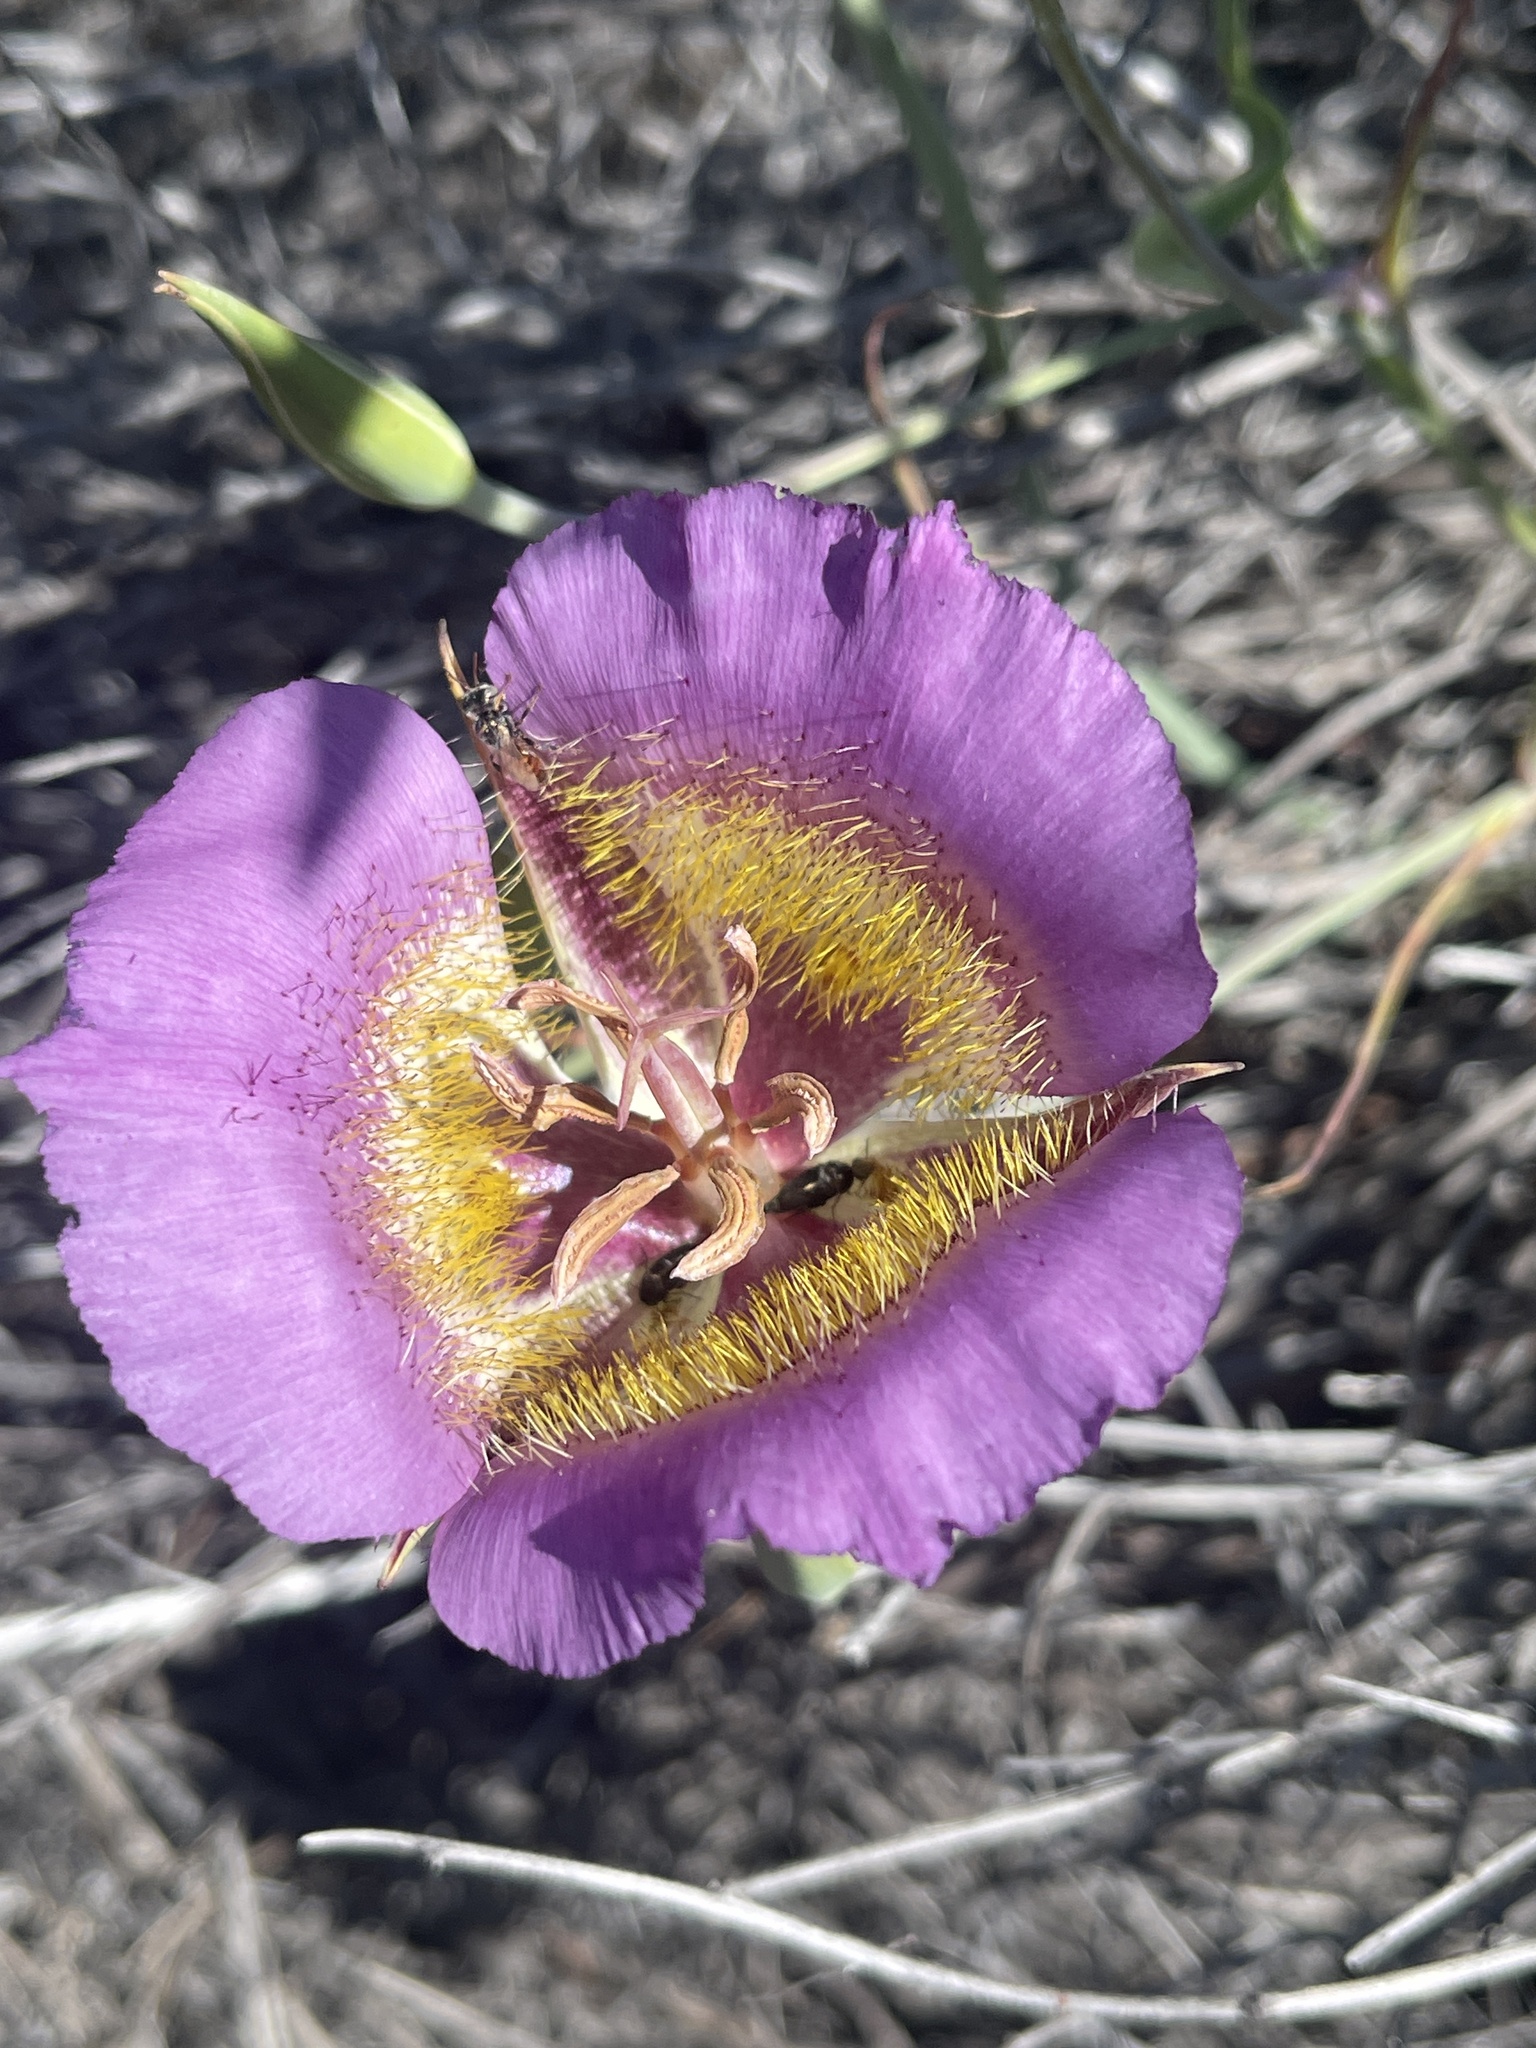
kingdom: Plantae
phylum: Tracheophyta
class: Liliopsida
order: Liliales
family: Liliaceae
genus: Calochortus
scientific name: Calochortus plummerae
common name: Plummer's mariposa-lily
